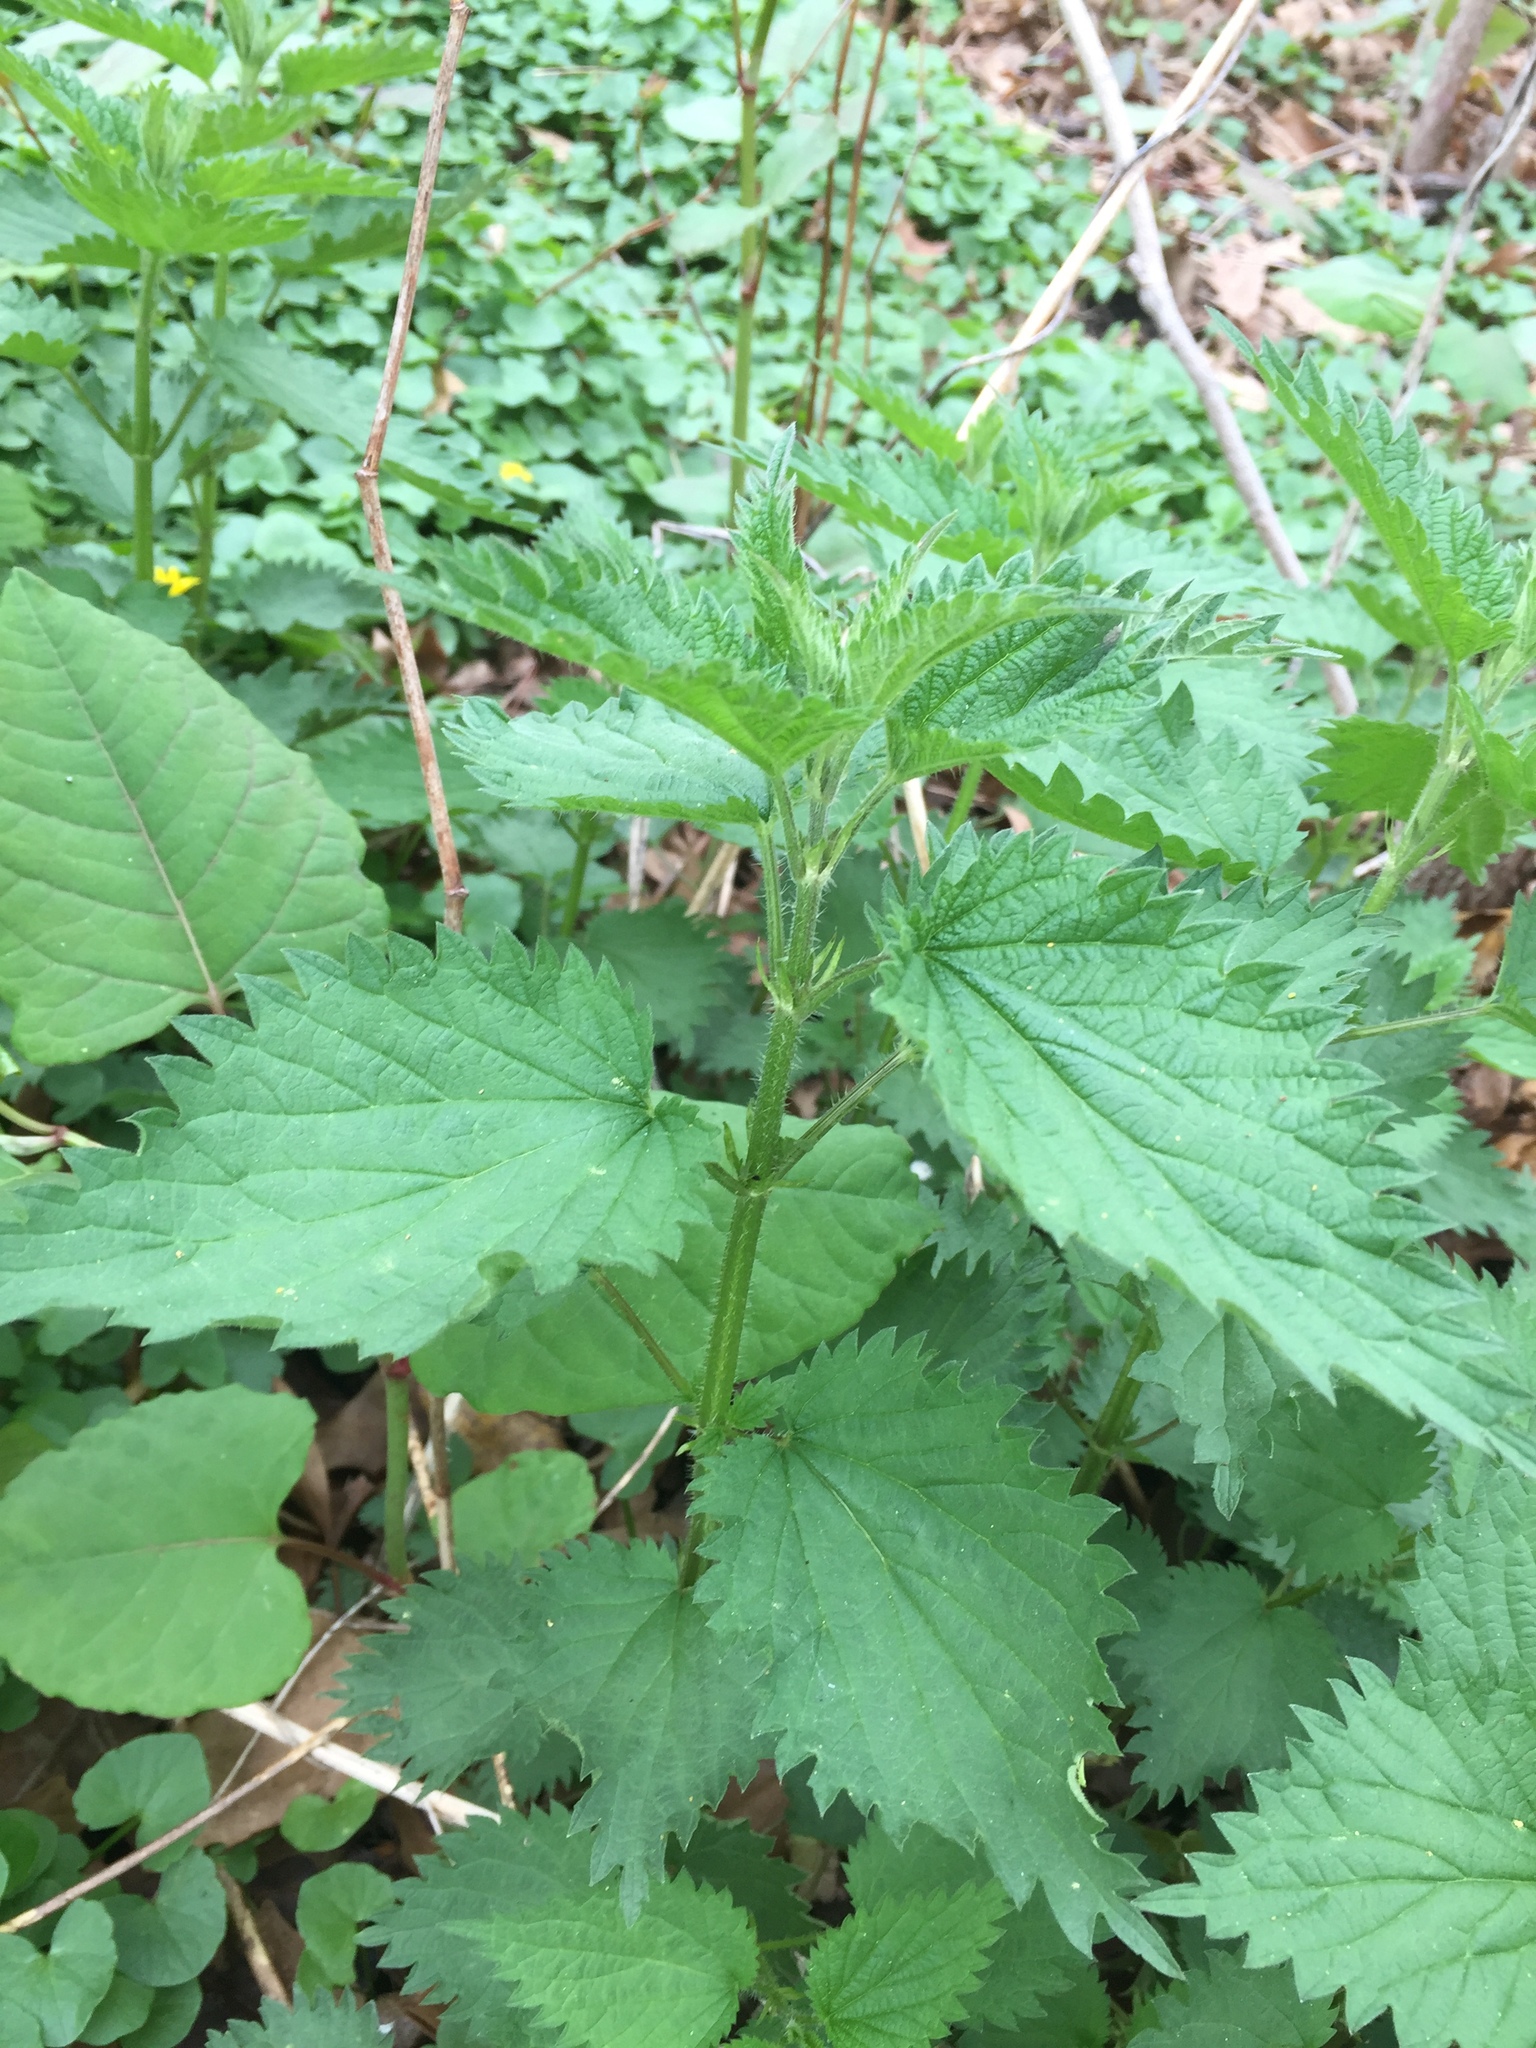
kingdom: Plantae
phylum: Tracheophyta
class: Magnoliopsida
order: Rosales
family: Urticaceae
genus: Urtica
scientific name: Urtica dioica
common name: Common nettle
